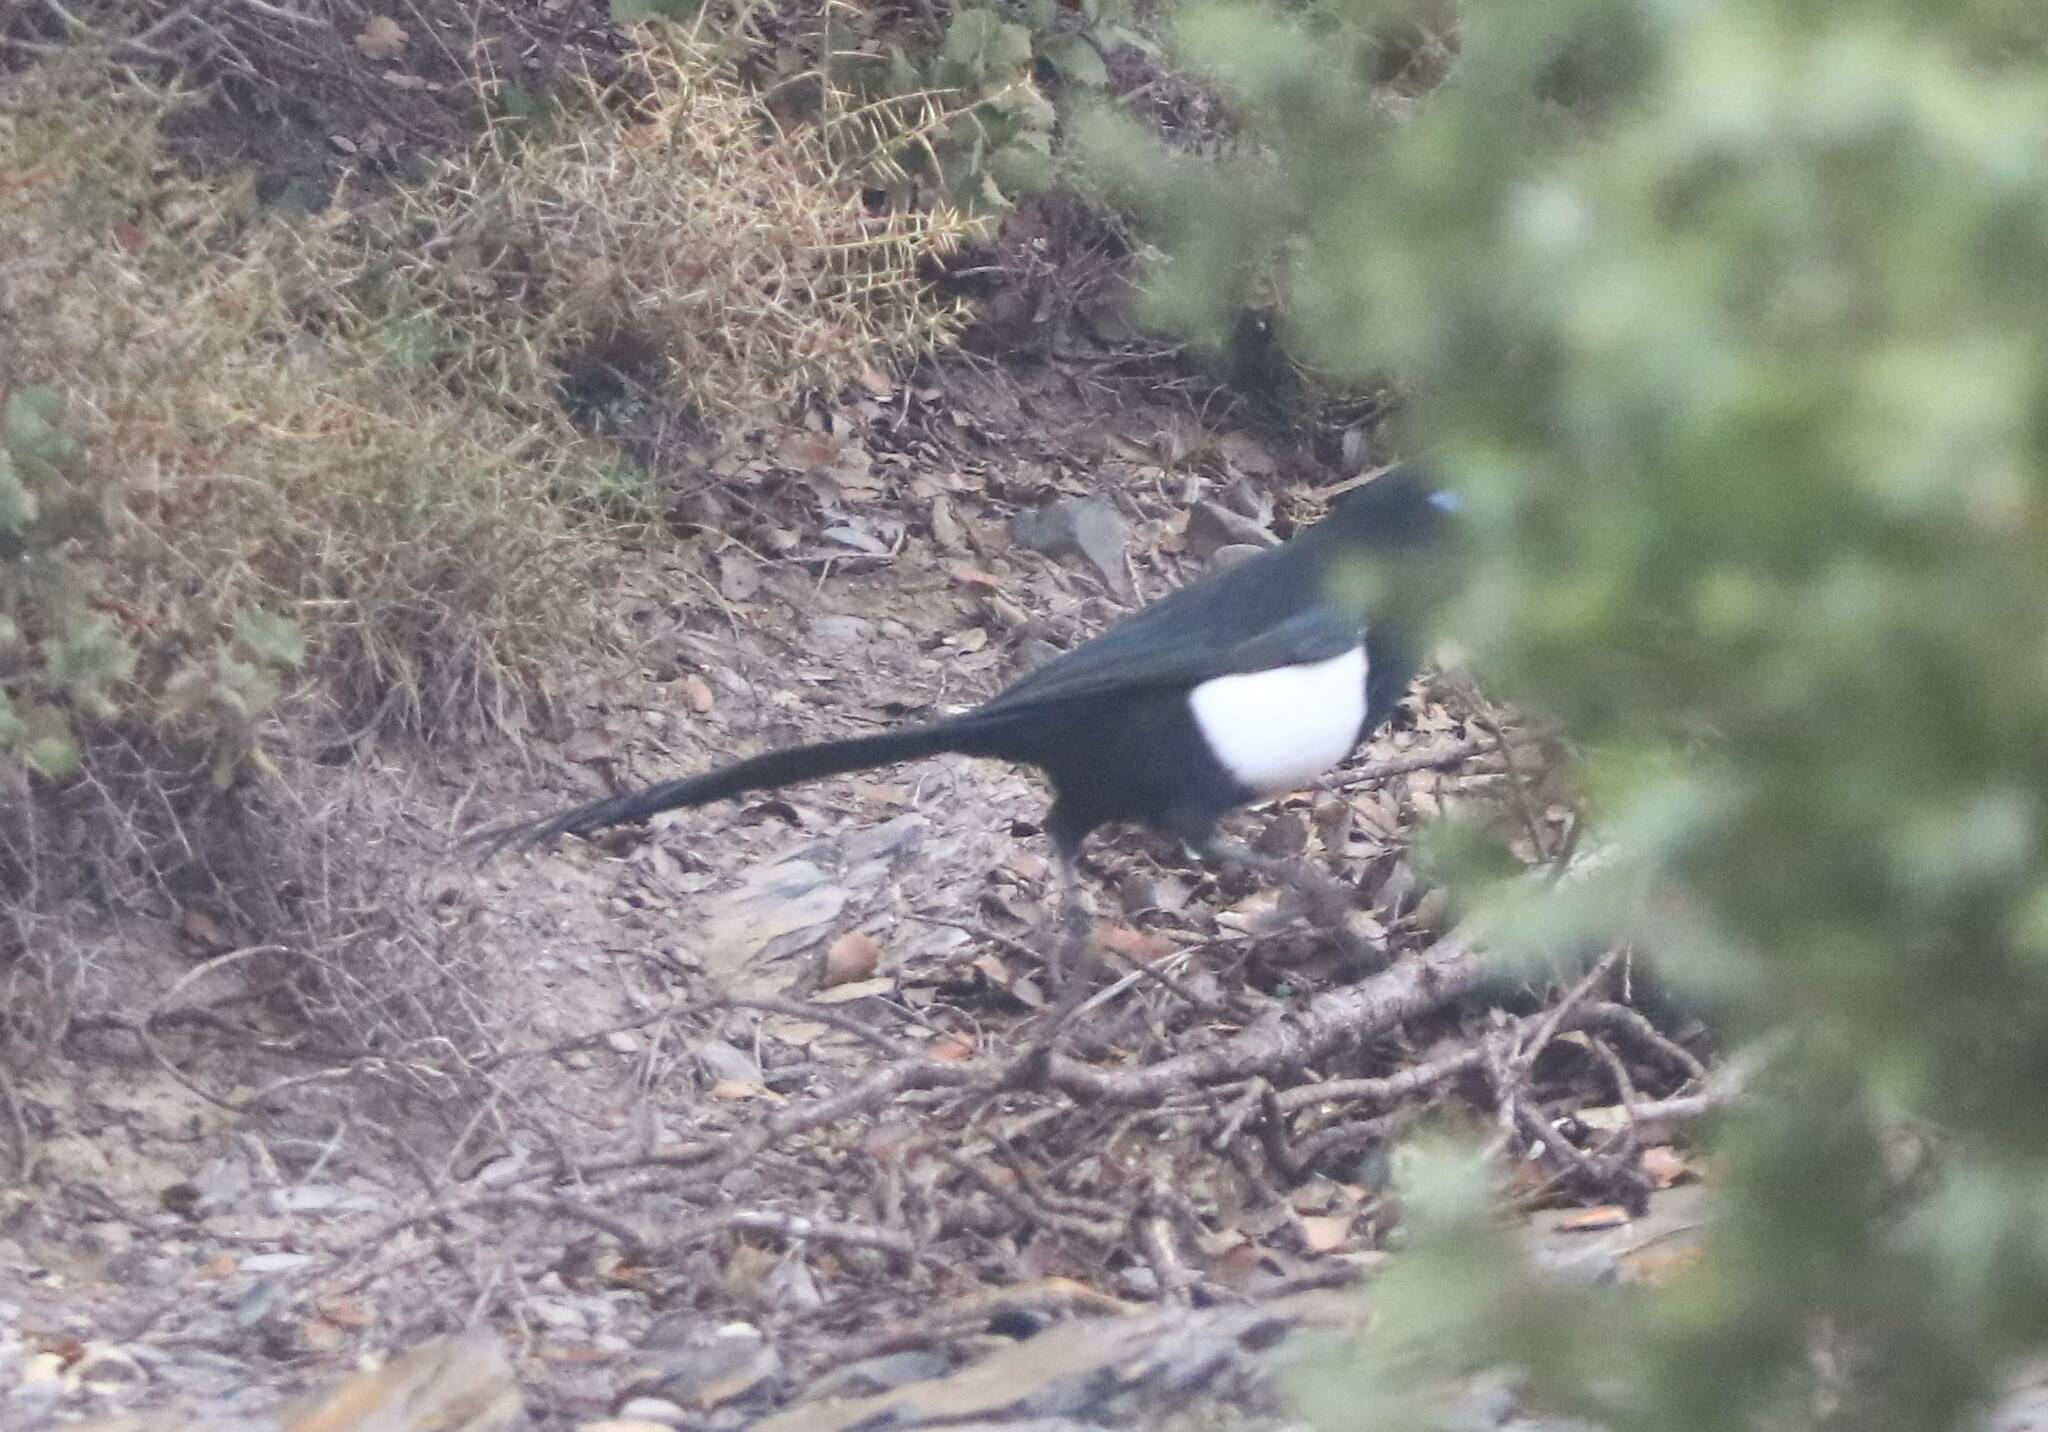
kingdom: Animalia
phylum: Chordata
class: Aves
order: Passeriformes
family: Corvidae
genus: Pica
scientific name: Pica mauritanica
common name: Maghreb magpie
